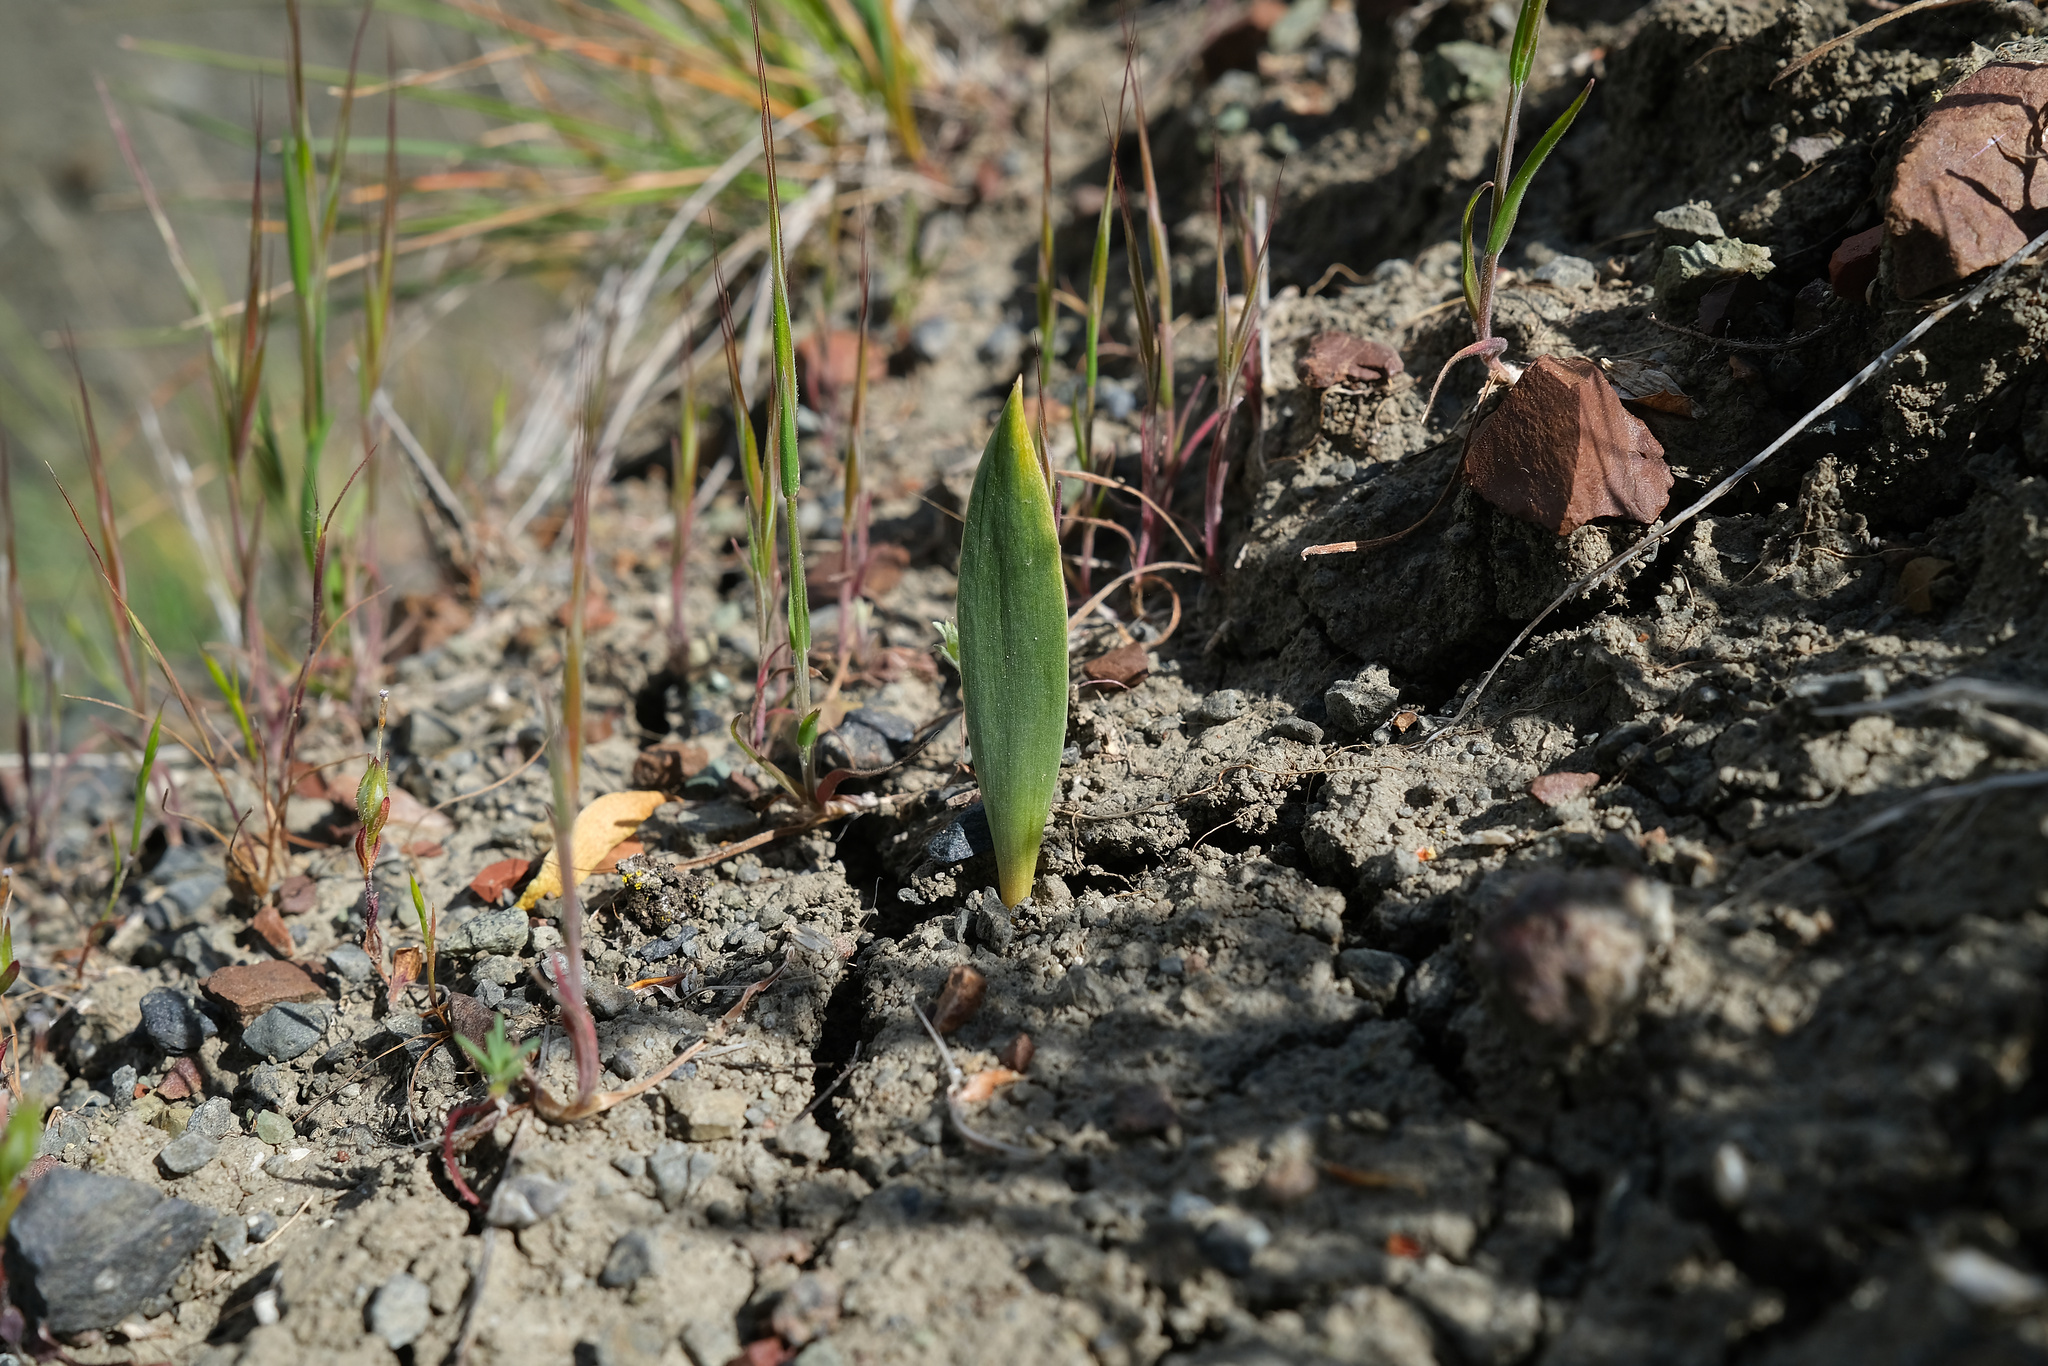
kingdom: Plantae
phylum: Tracheophyta
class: Liliopsida
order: Liliales
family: Liliaceae
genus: Fritillaria
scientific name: Fritillaria agrestis
